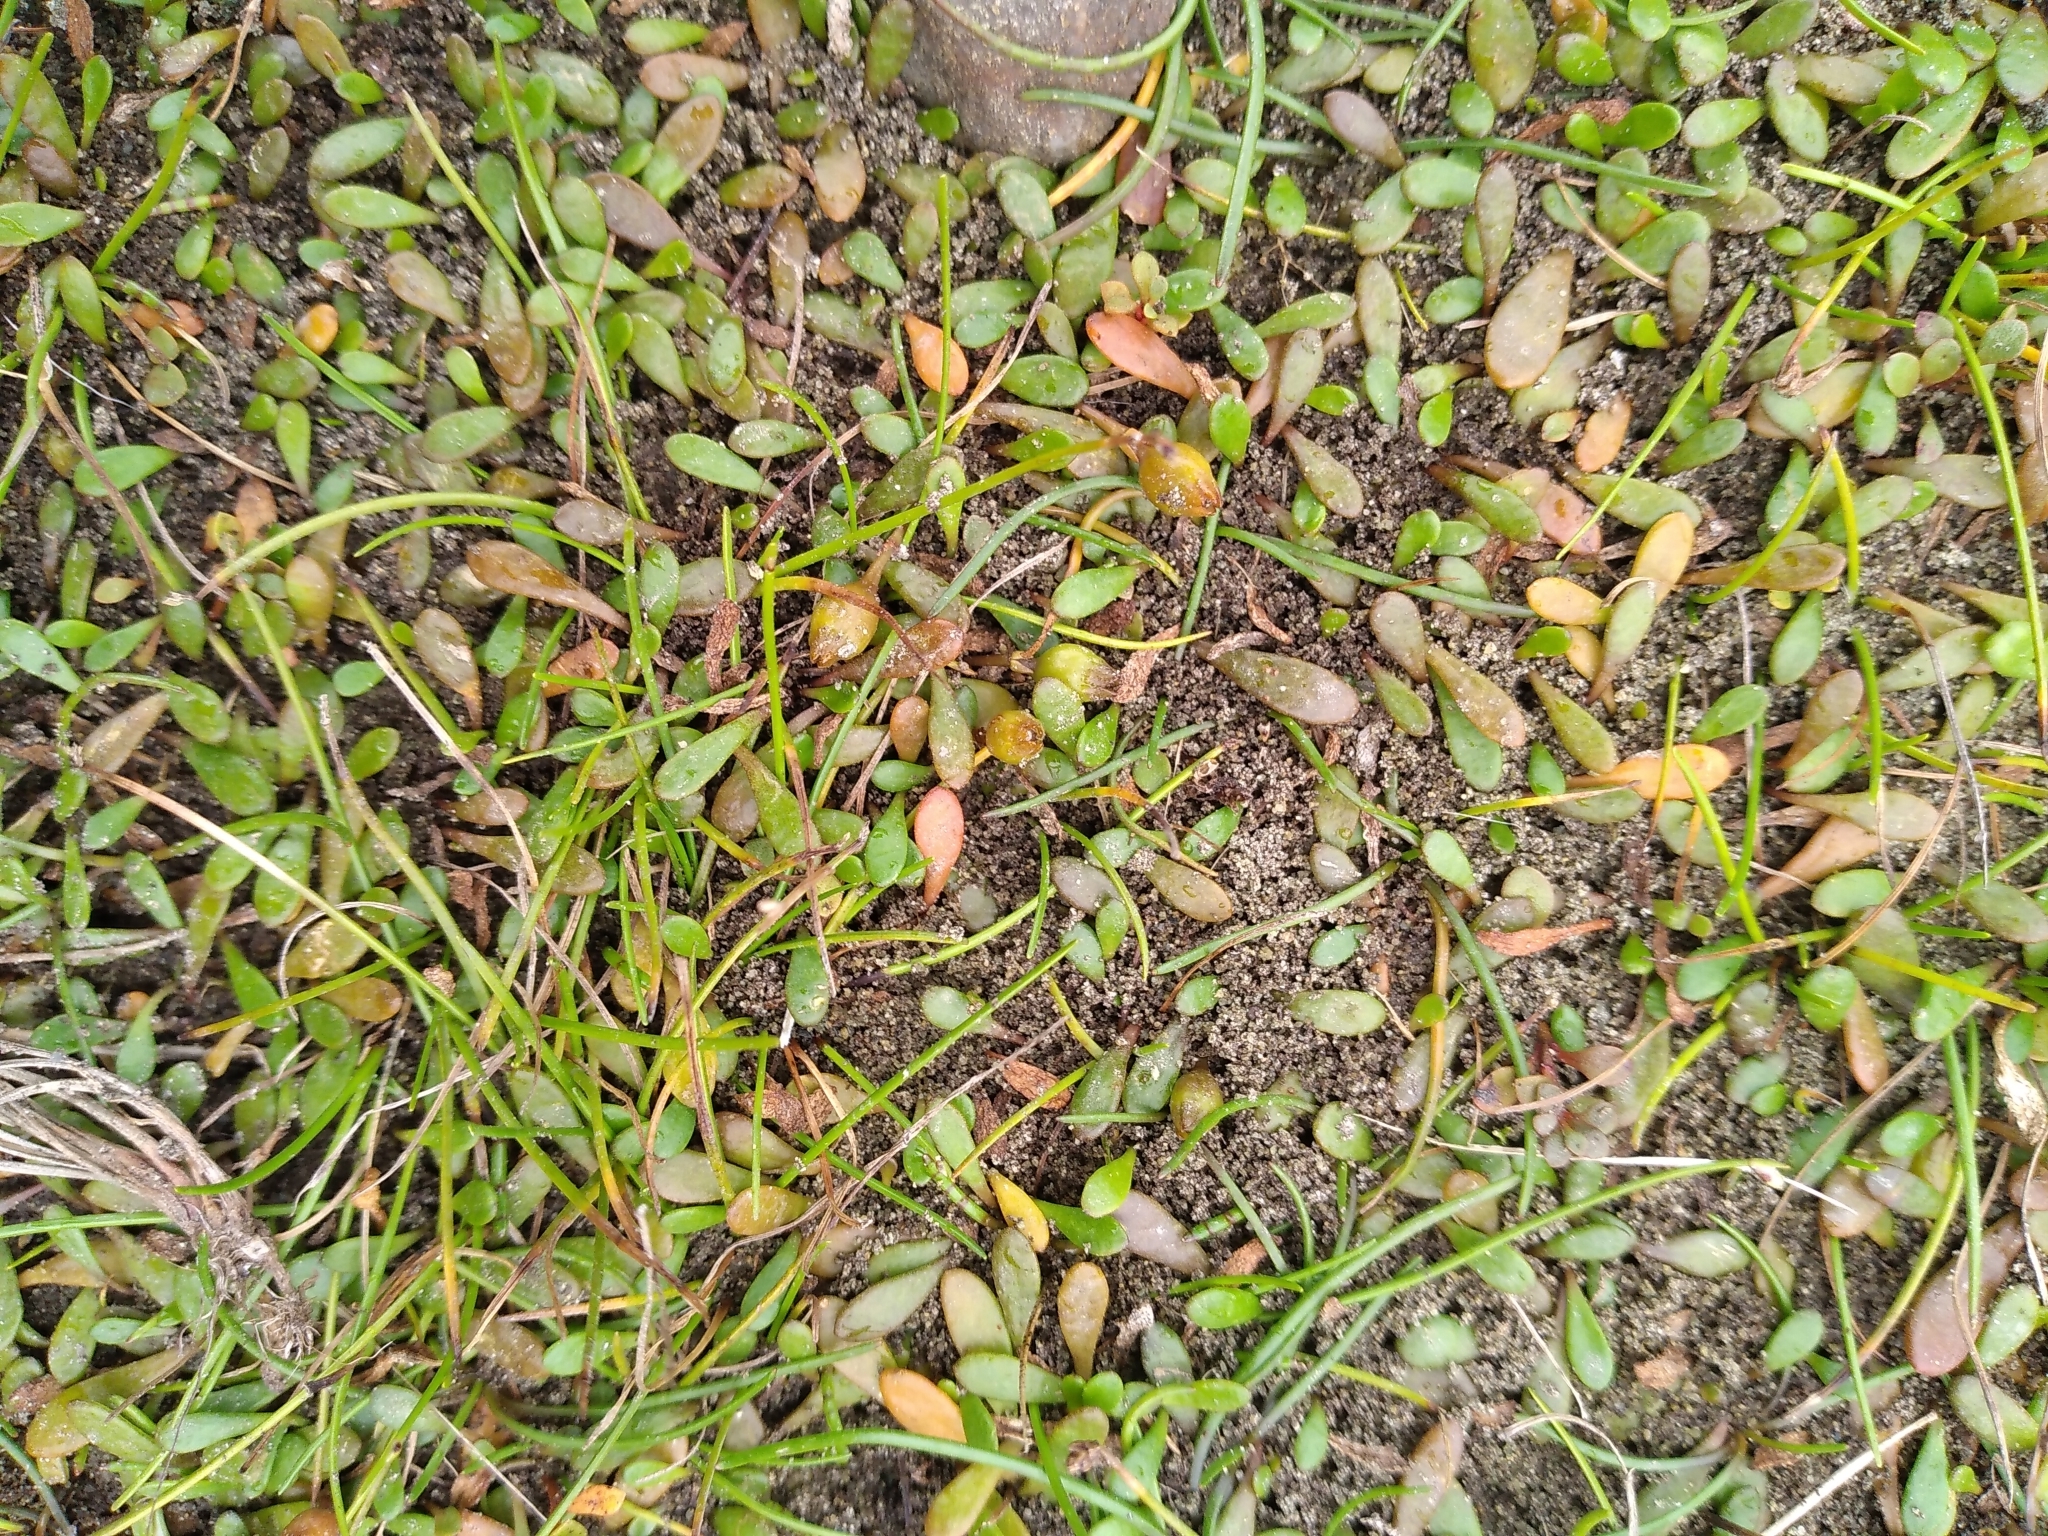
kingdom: Plantae
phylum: Tracheophyta
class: Magnoliopsida
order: Asterales
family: Goodeniaceae
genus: Goodenia
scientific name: Goodenia radicans
